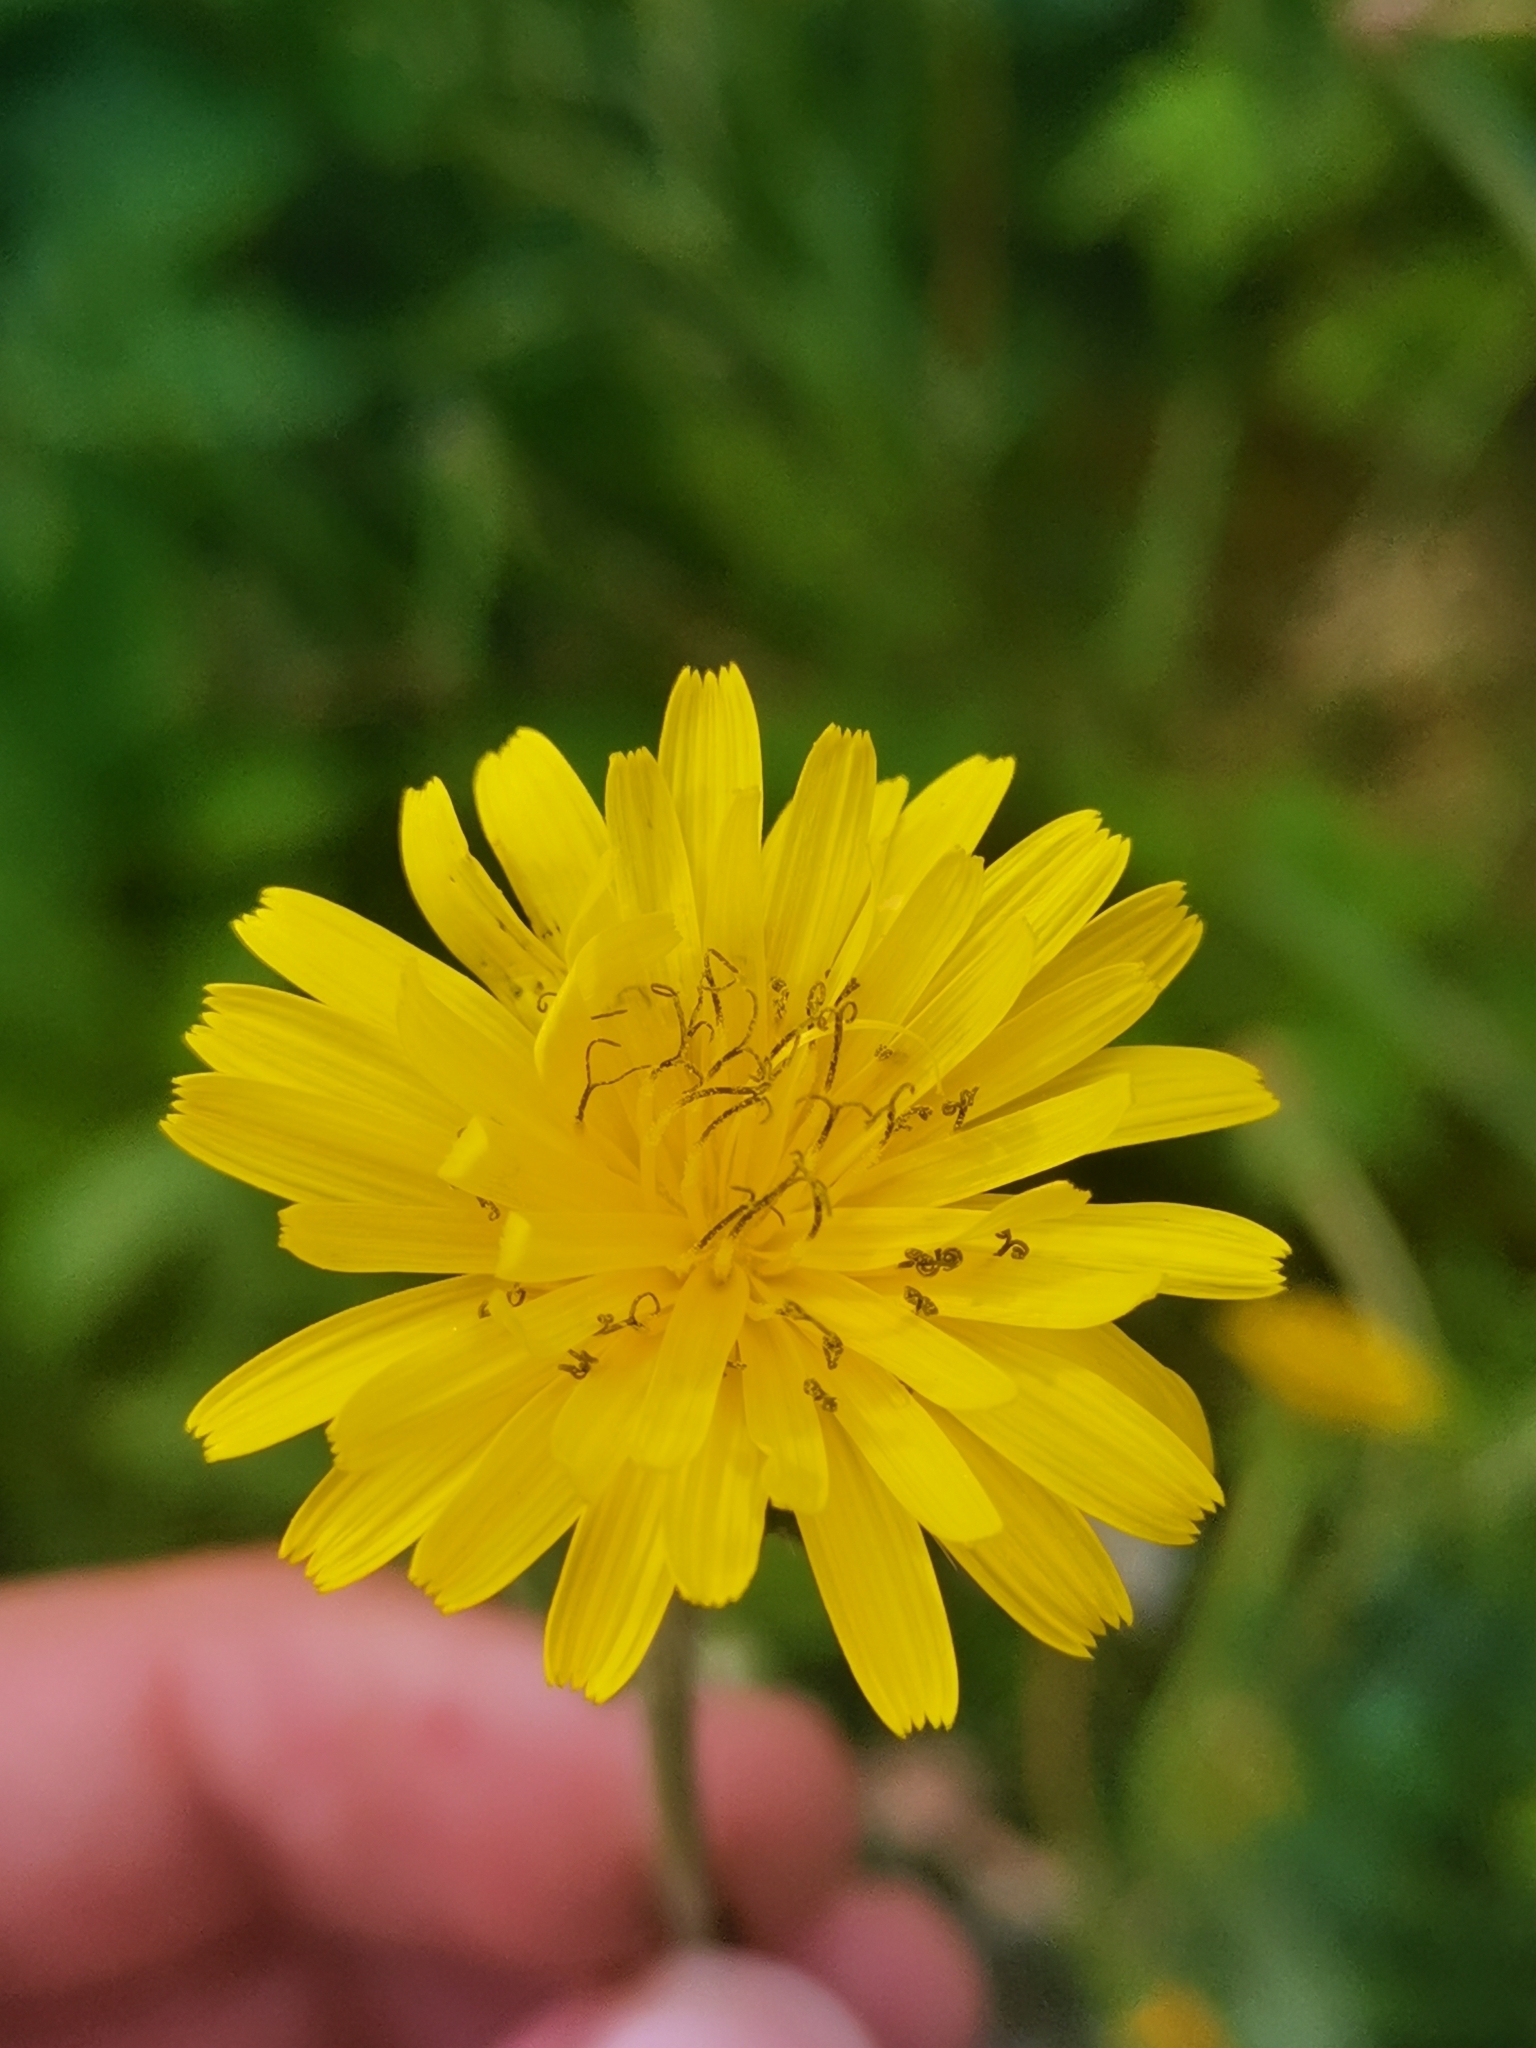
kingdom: Plantae
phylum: Tracheophyta
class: Magnoliopsida
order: Asterales
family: Asteraceae
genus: Helminthotheca
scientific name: Helminthotheca echioides
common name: Ox-tongue
